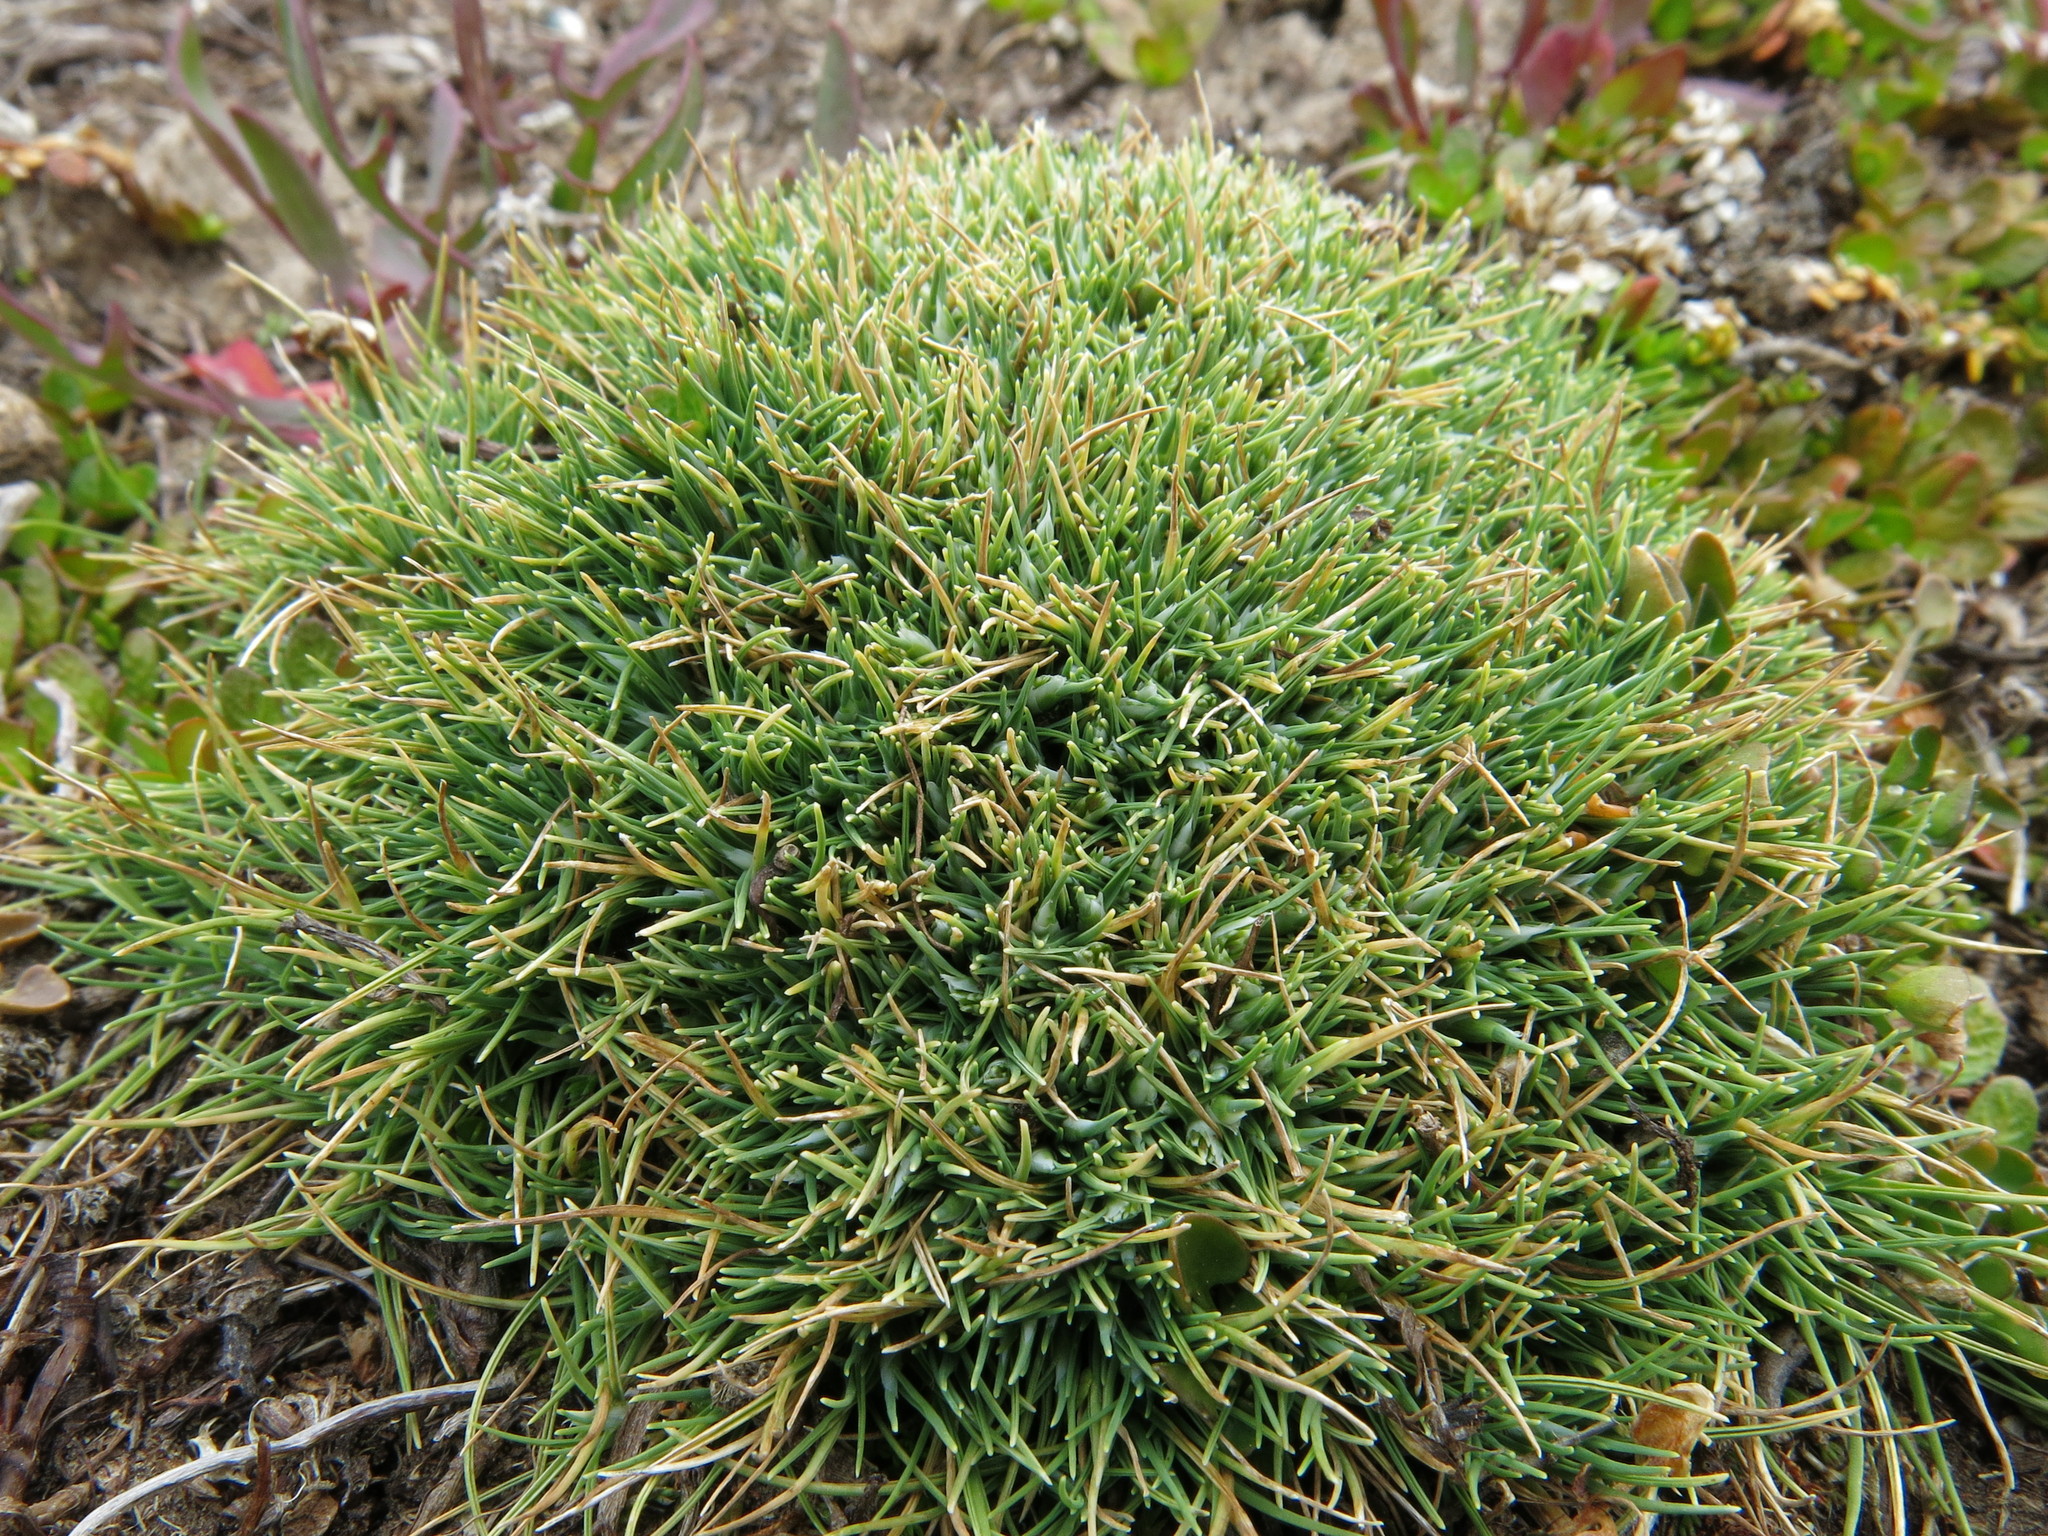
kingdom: Plantae
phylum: Tracheophyta
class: Liliopsida
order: Poales
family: Poaceae
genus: Agrostis
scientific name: Agrostis muscosa
